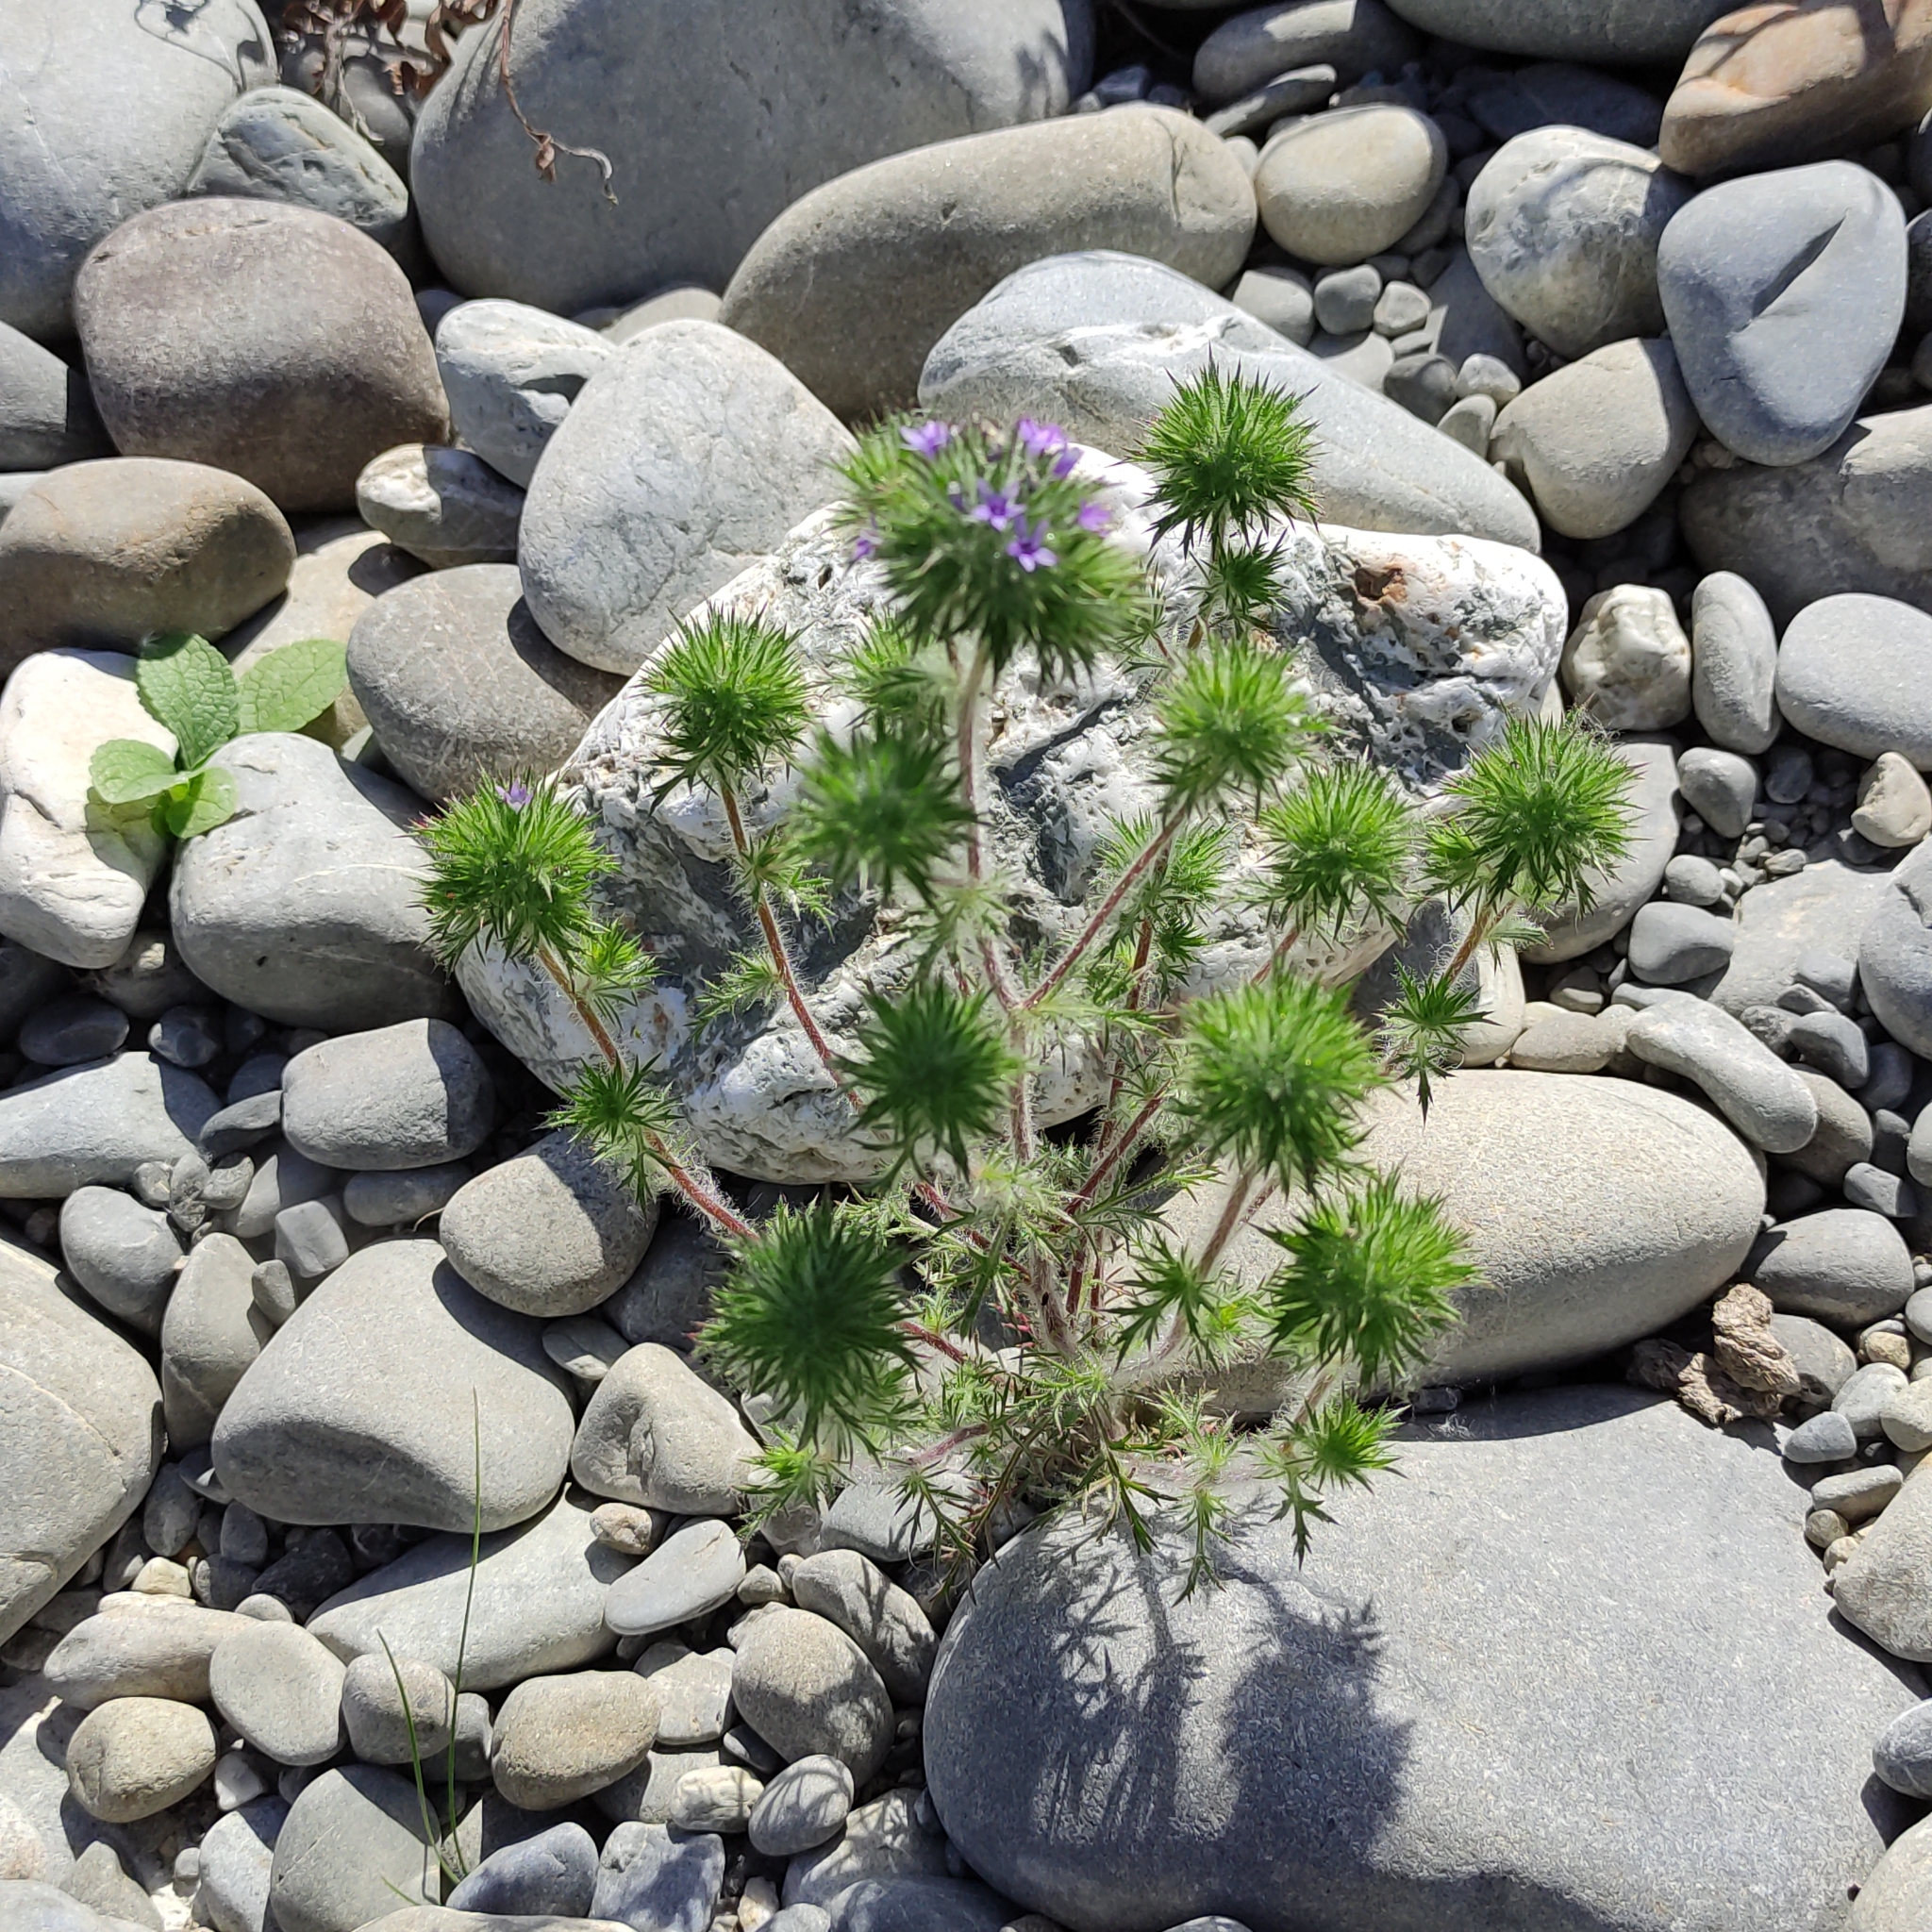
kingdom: Plantae
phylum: Tracheophyta
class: Magnoliopsida
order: Ericales
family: Polemoniaceae
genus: Navarretia
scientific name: Navarretia squarrosa
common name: Skunkweed
